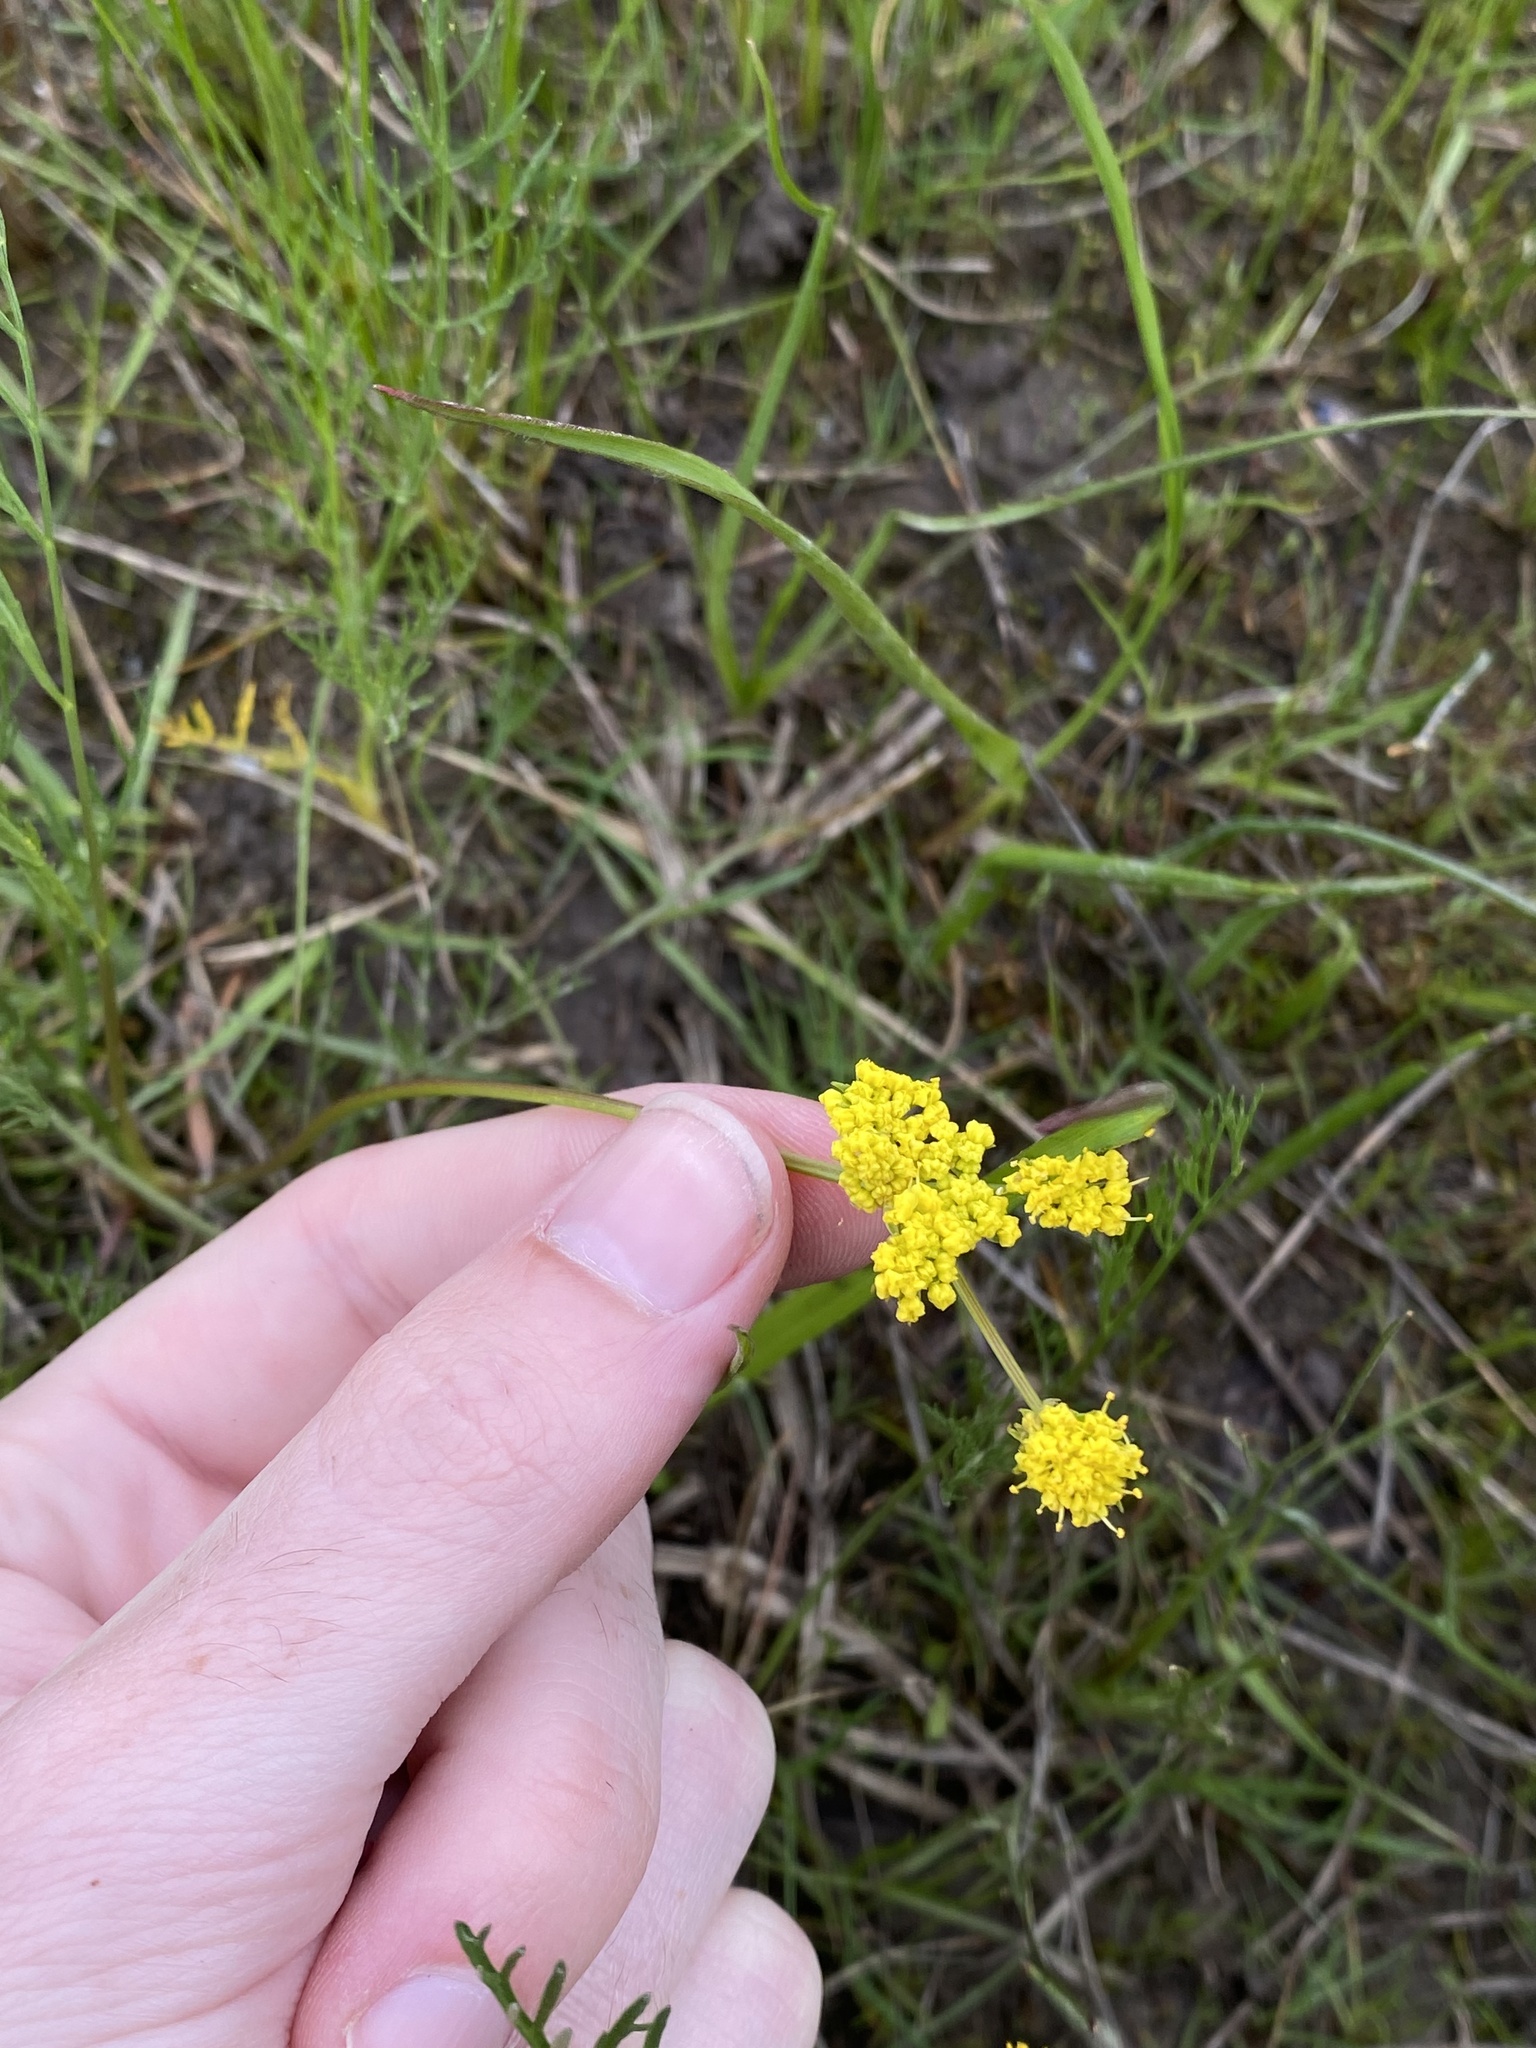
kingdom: Plantae
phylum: Tracheophyta
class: Magnoliopsida
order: Apiales
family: Apiaceae
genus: Lomatium
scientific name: Lomatium bradshawii
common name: Bradshaw's desert-parsley
